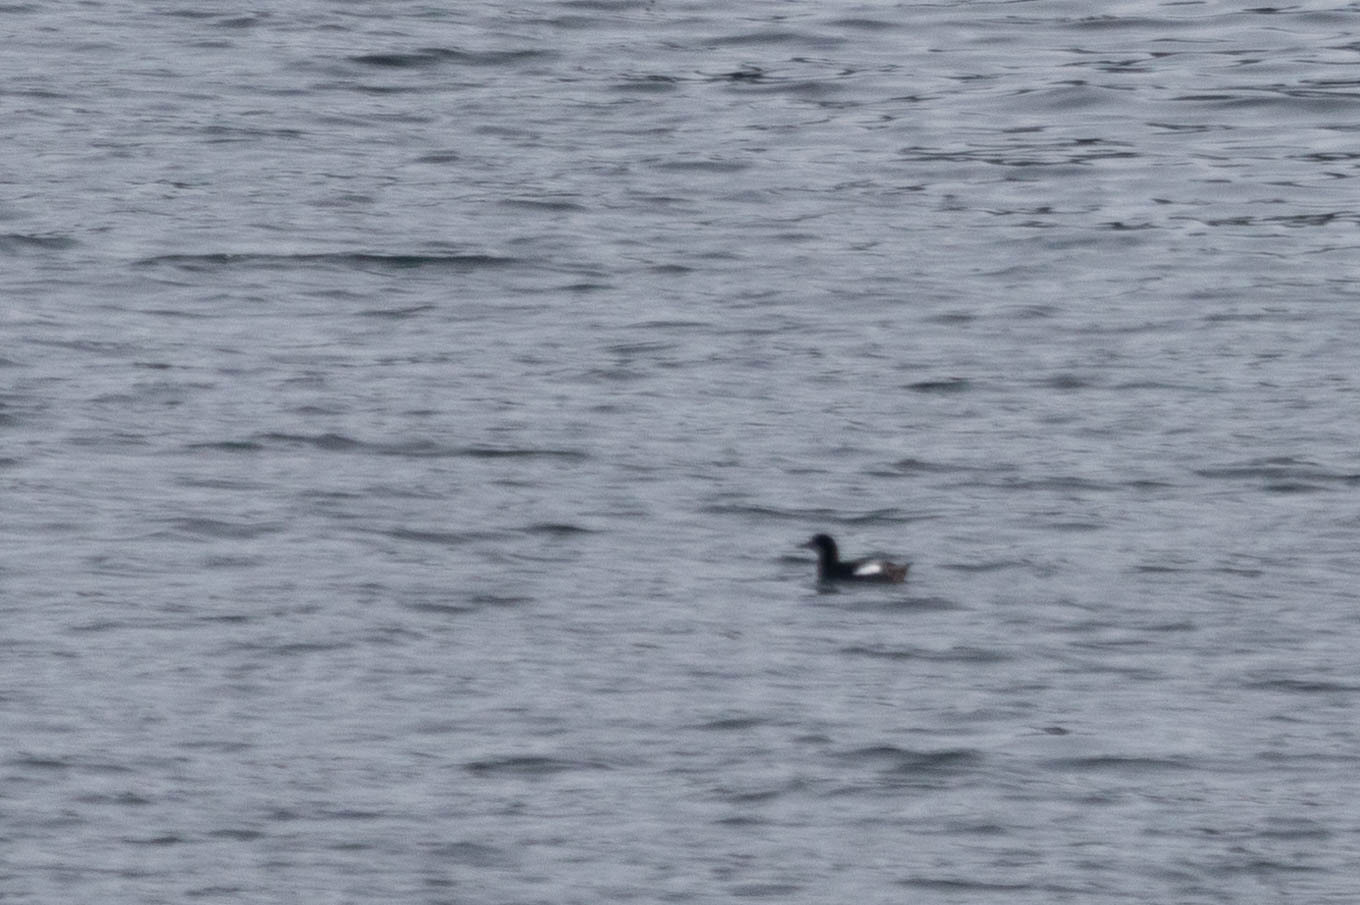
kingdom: Animalia
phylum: Chordata
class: Aves
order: Charadriiformes
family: Alcidae
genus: Cepphus
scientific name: Cepphus columba
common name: Pigeon guillemot
